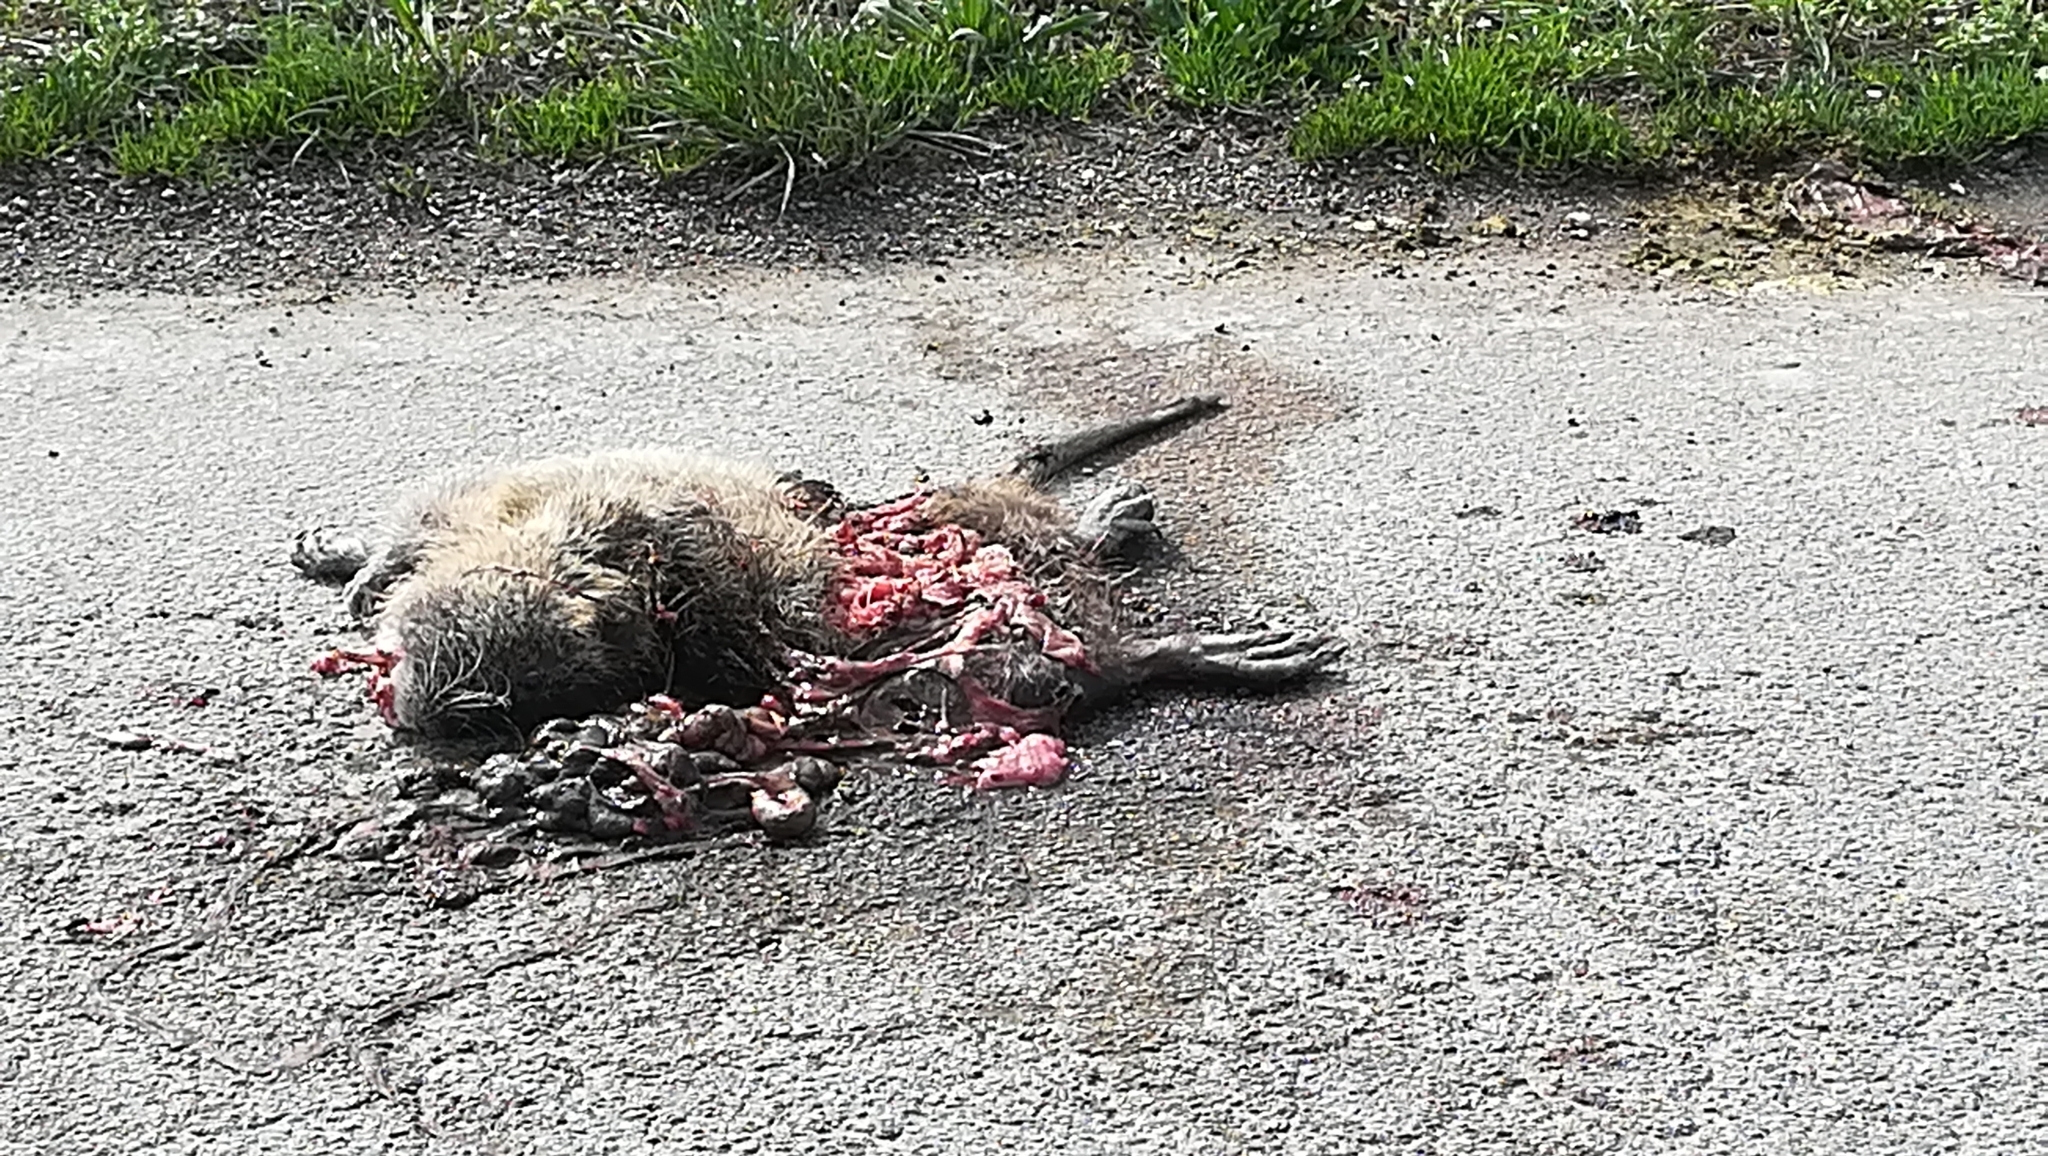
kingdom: Animalia
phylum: Chordata
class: Mammalia
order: Rodentia
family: Myocastoridae
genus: Myocastor
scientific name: Myocastor coypus
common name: Coypu
